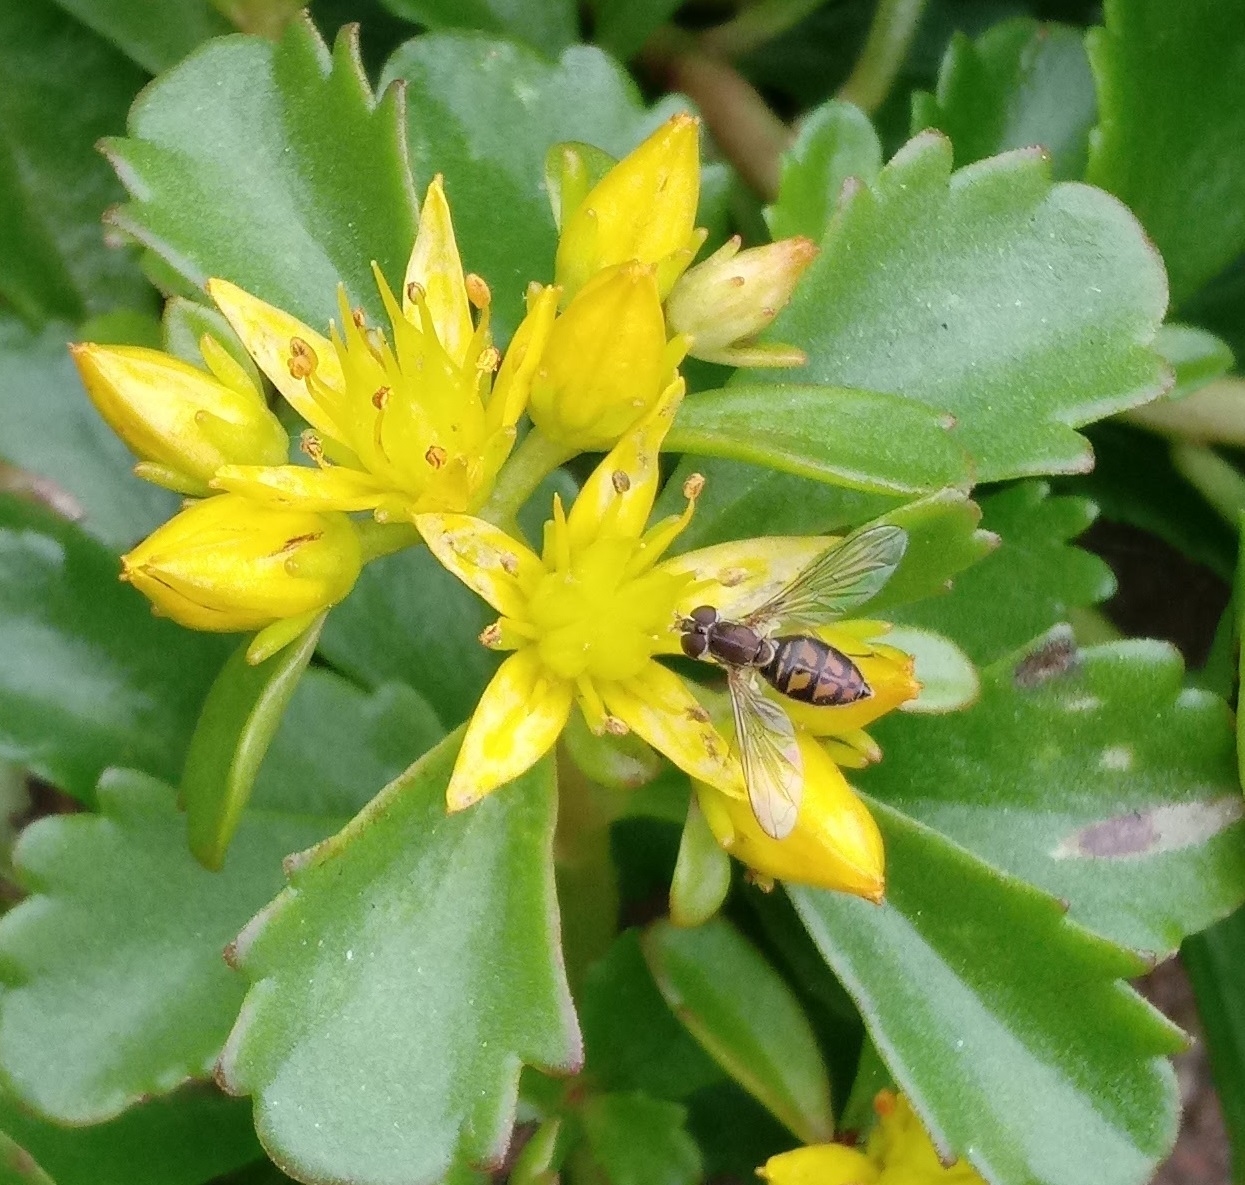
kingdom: Animalia
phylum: Arthropoda
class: Insecta
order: Diptera
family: Syrphidae
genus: Toxomerus
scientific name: Toxomerus marginatus
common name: Syrphid fly
